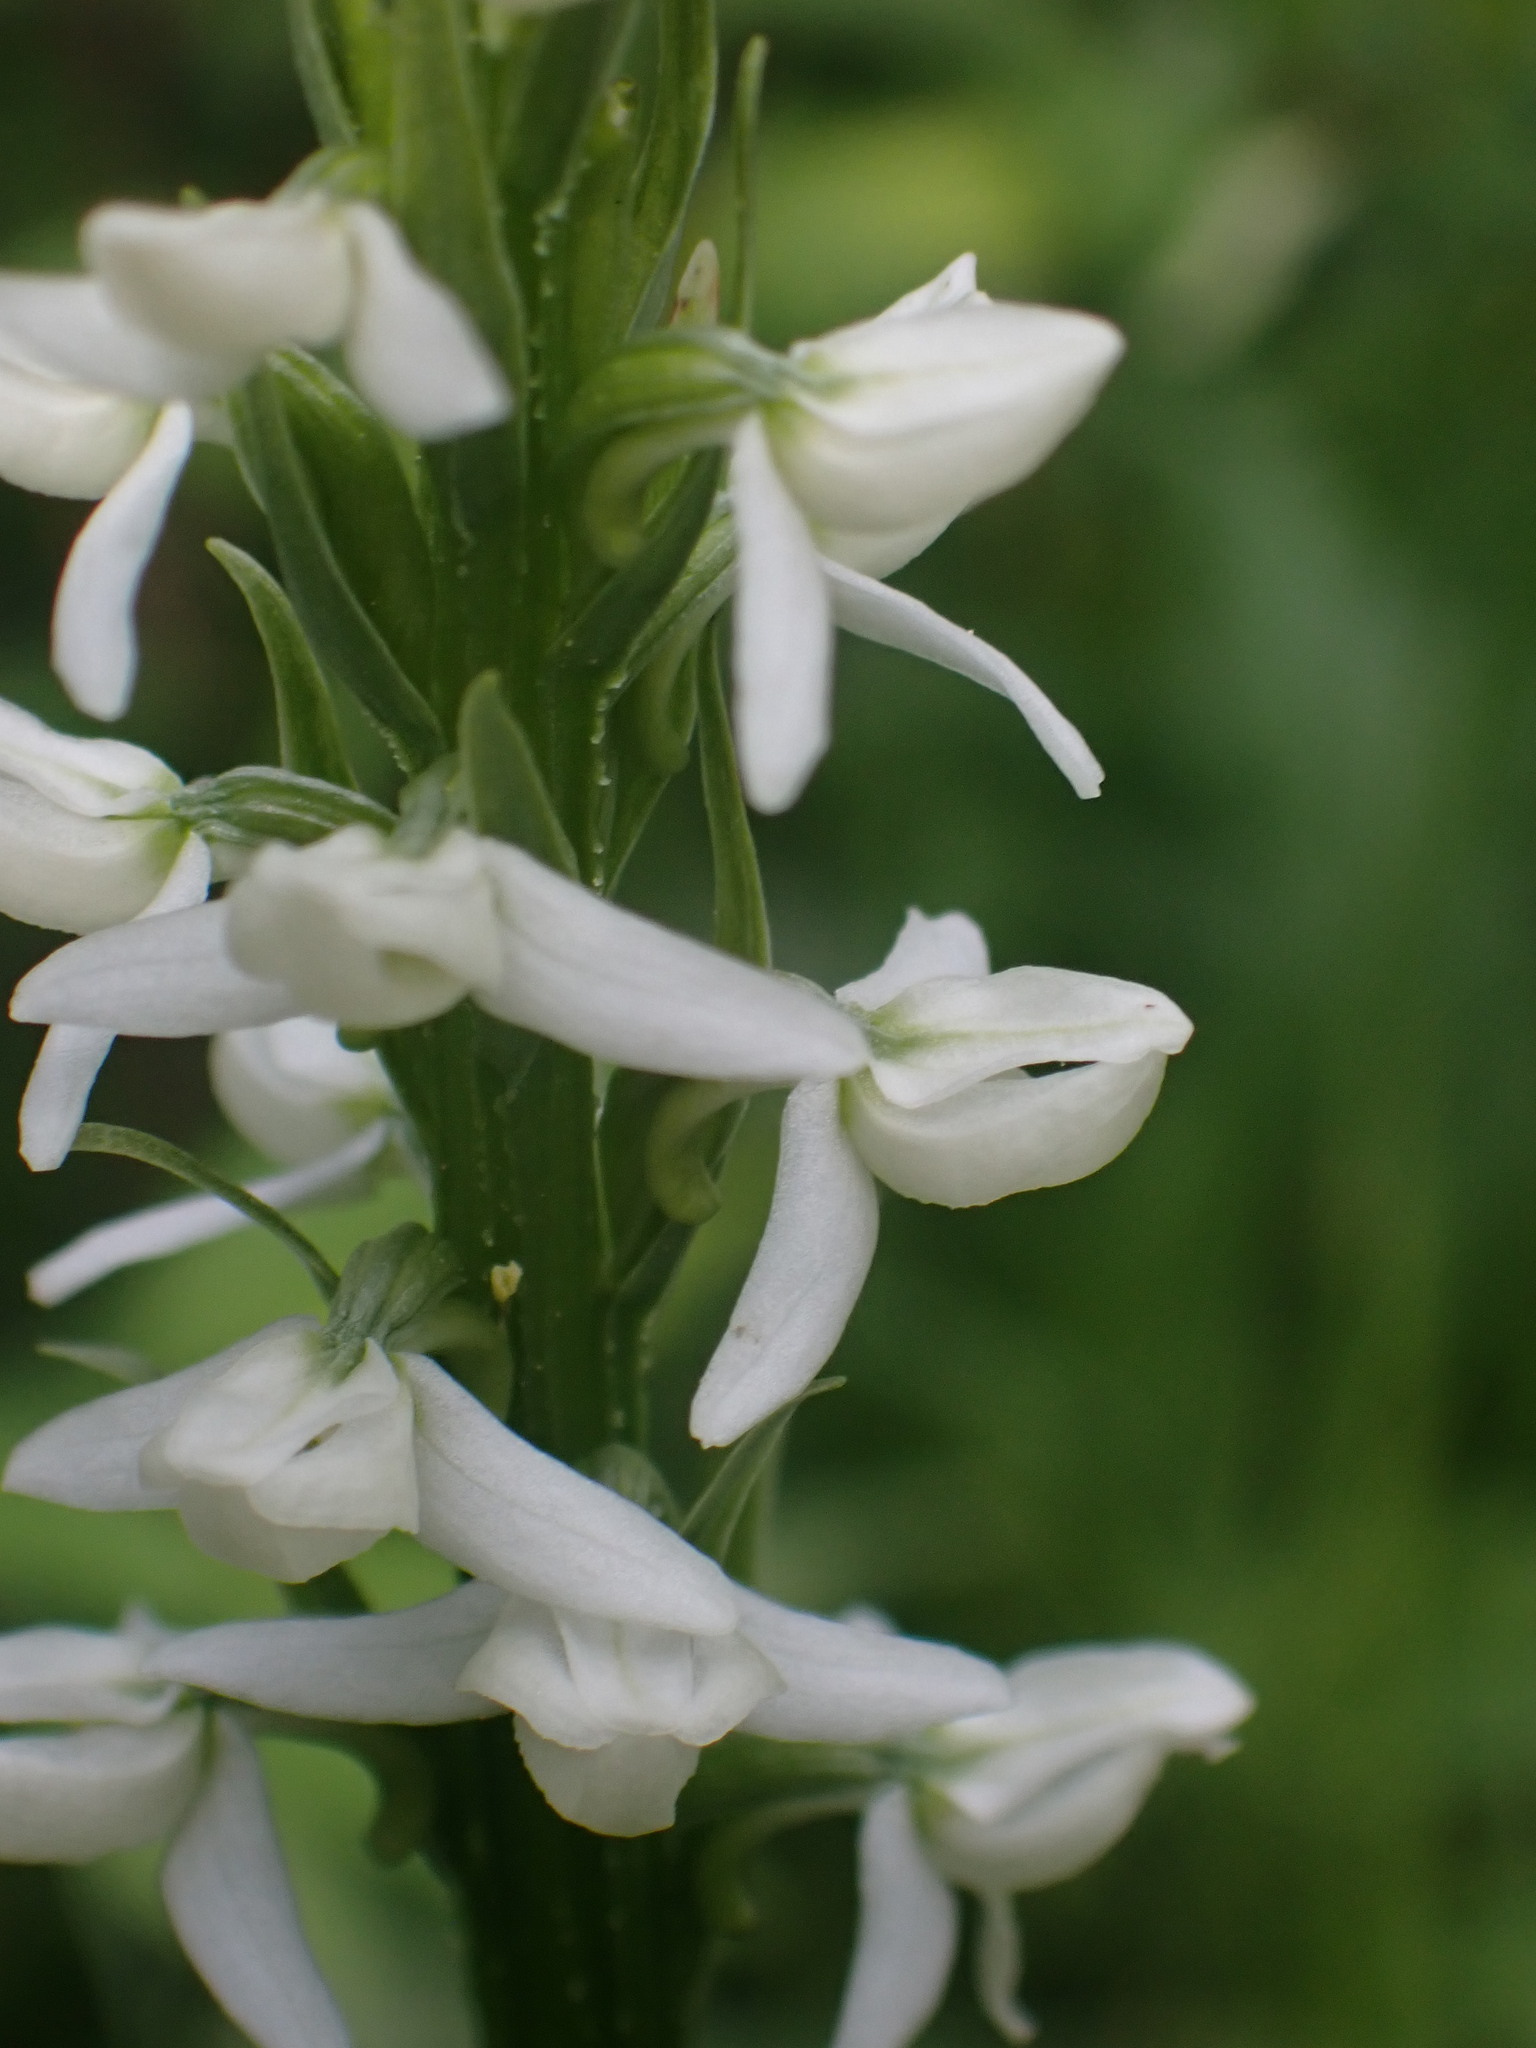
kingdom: Plantae
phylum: Tracheophyta
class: Liliopsida
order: Asparagales
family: Orchidaceae
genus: Platanthera
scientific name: Platanthera dilatata
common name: Bog candles
